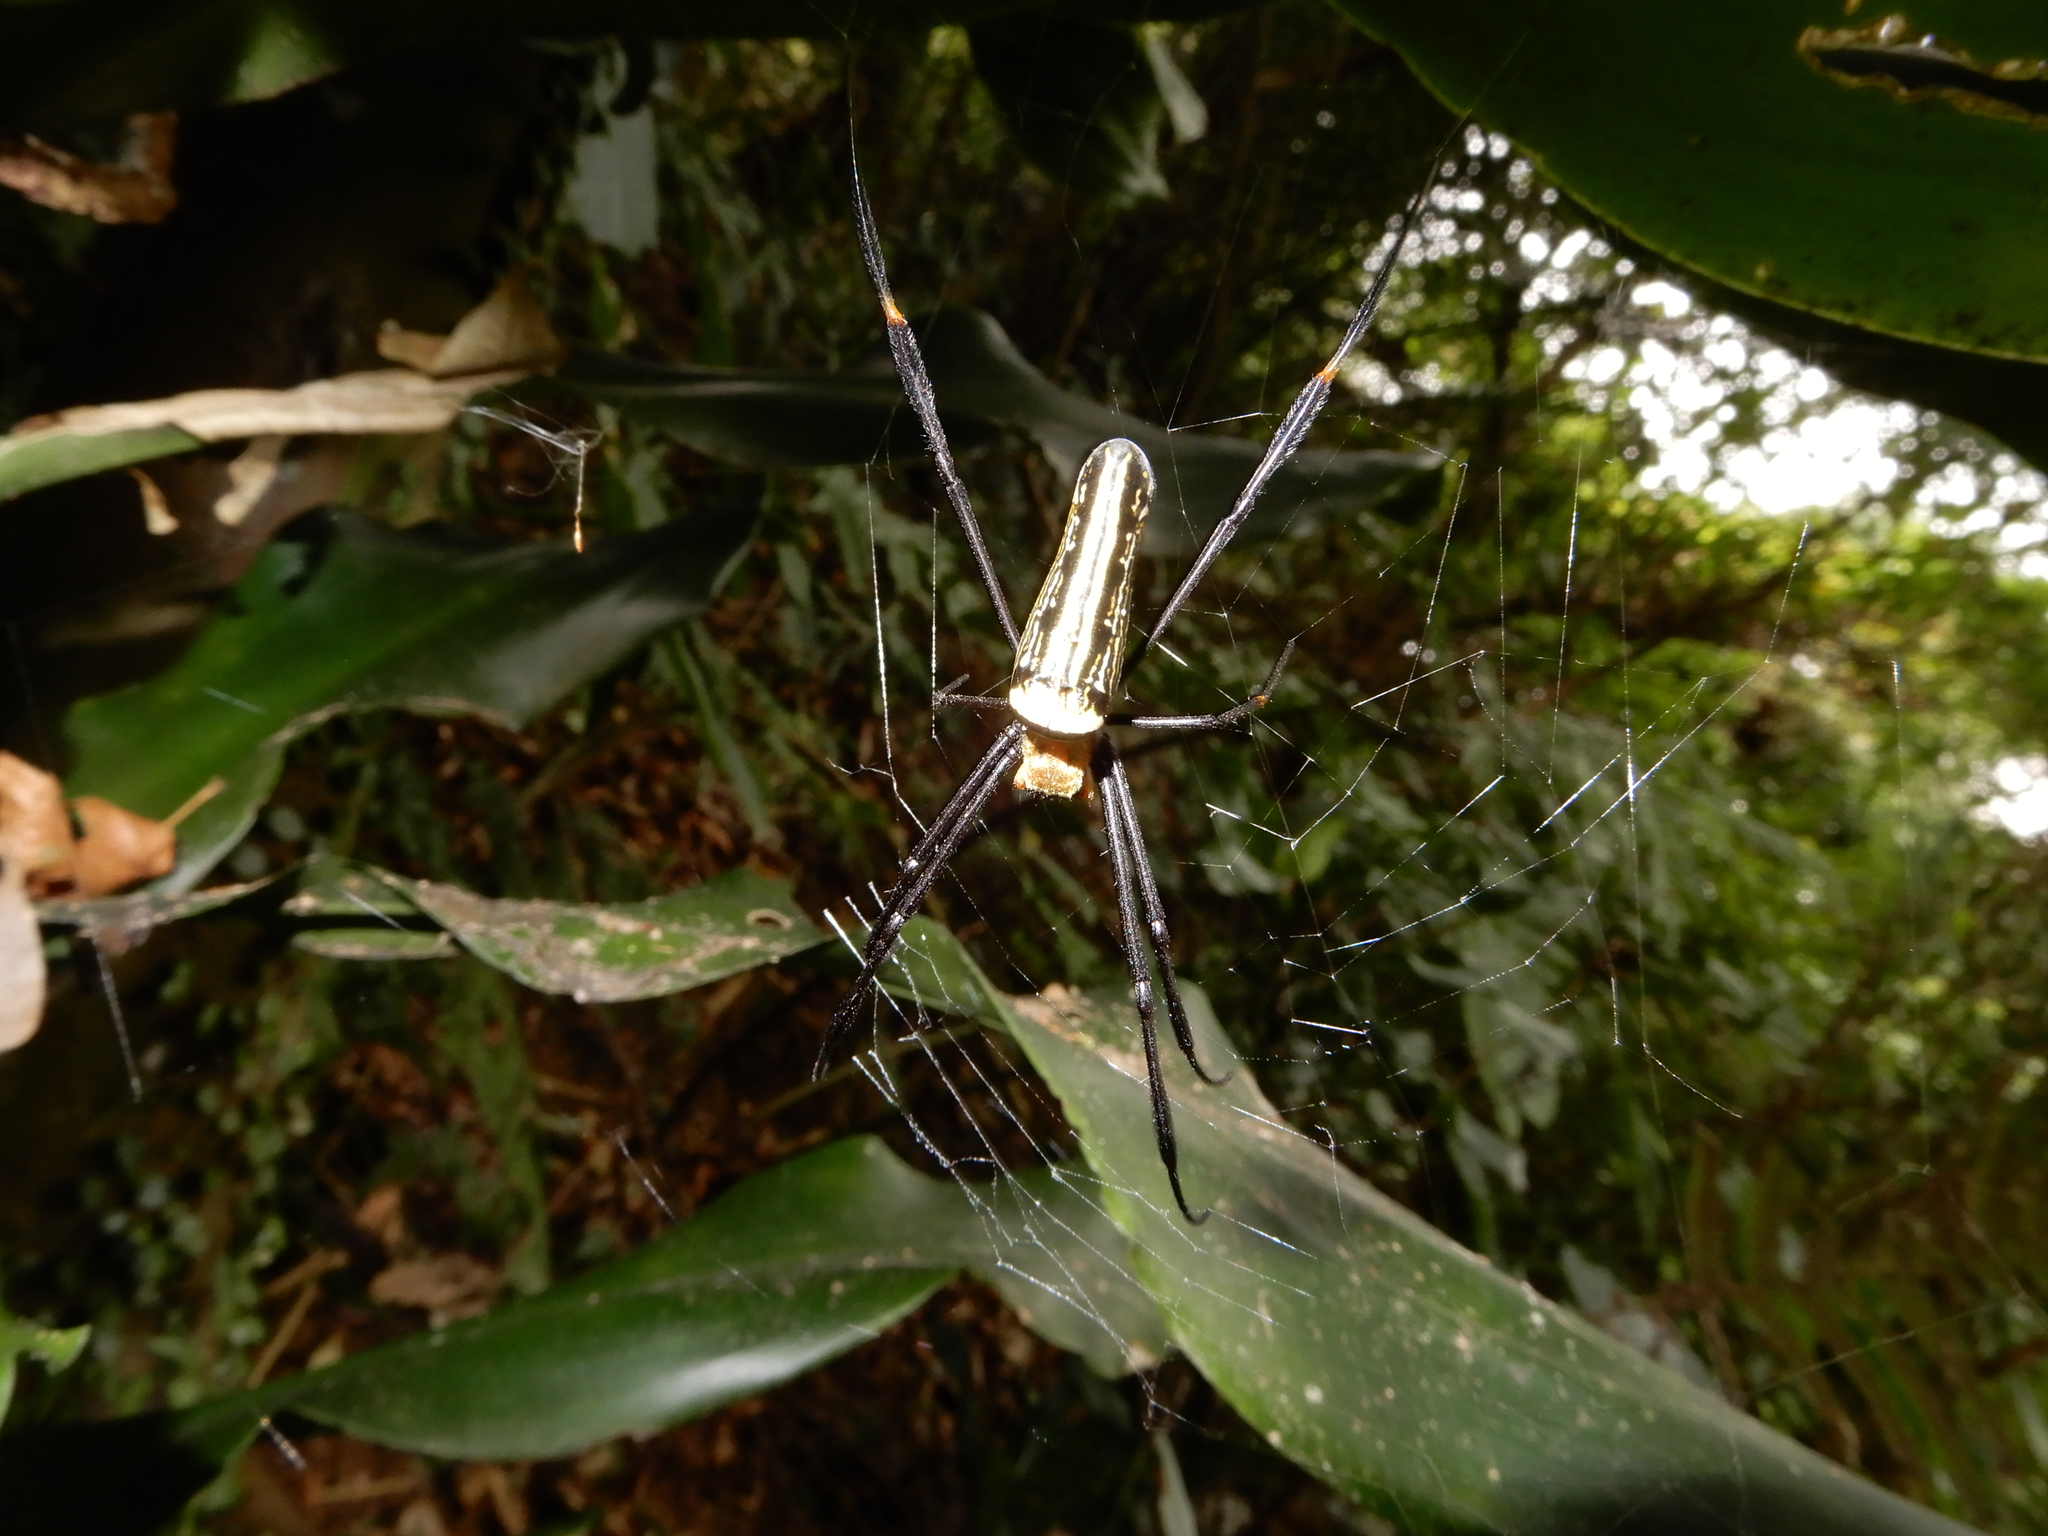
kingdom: Animalia
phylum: Arthropoda
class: Arachnida
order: Araneae
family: Araneidae
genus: Nephila
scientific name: Nephila pilipes
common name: Giant golden orb weaver
